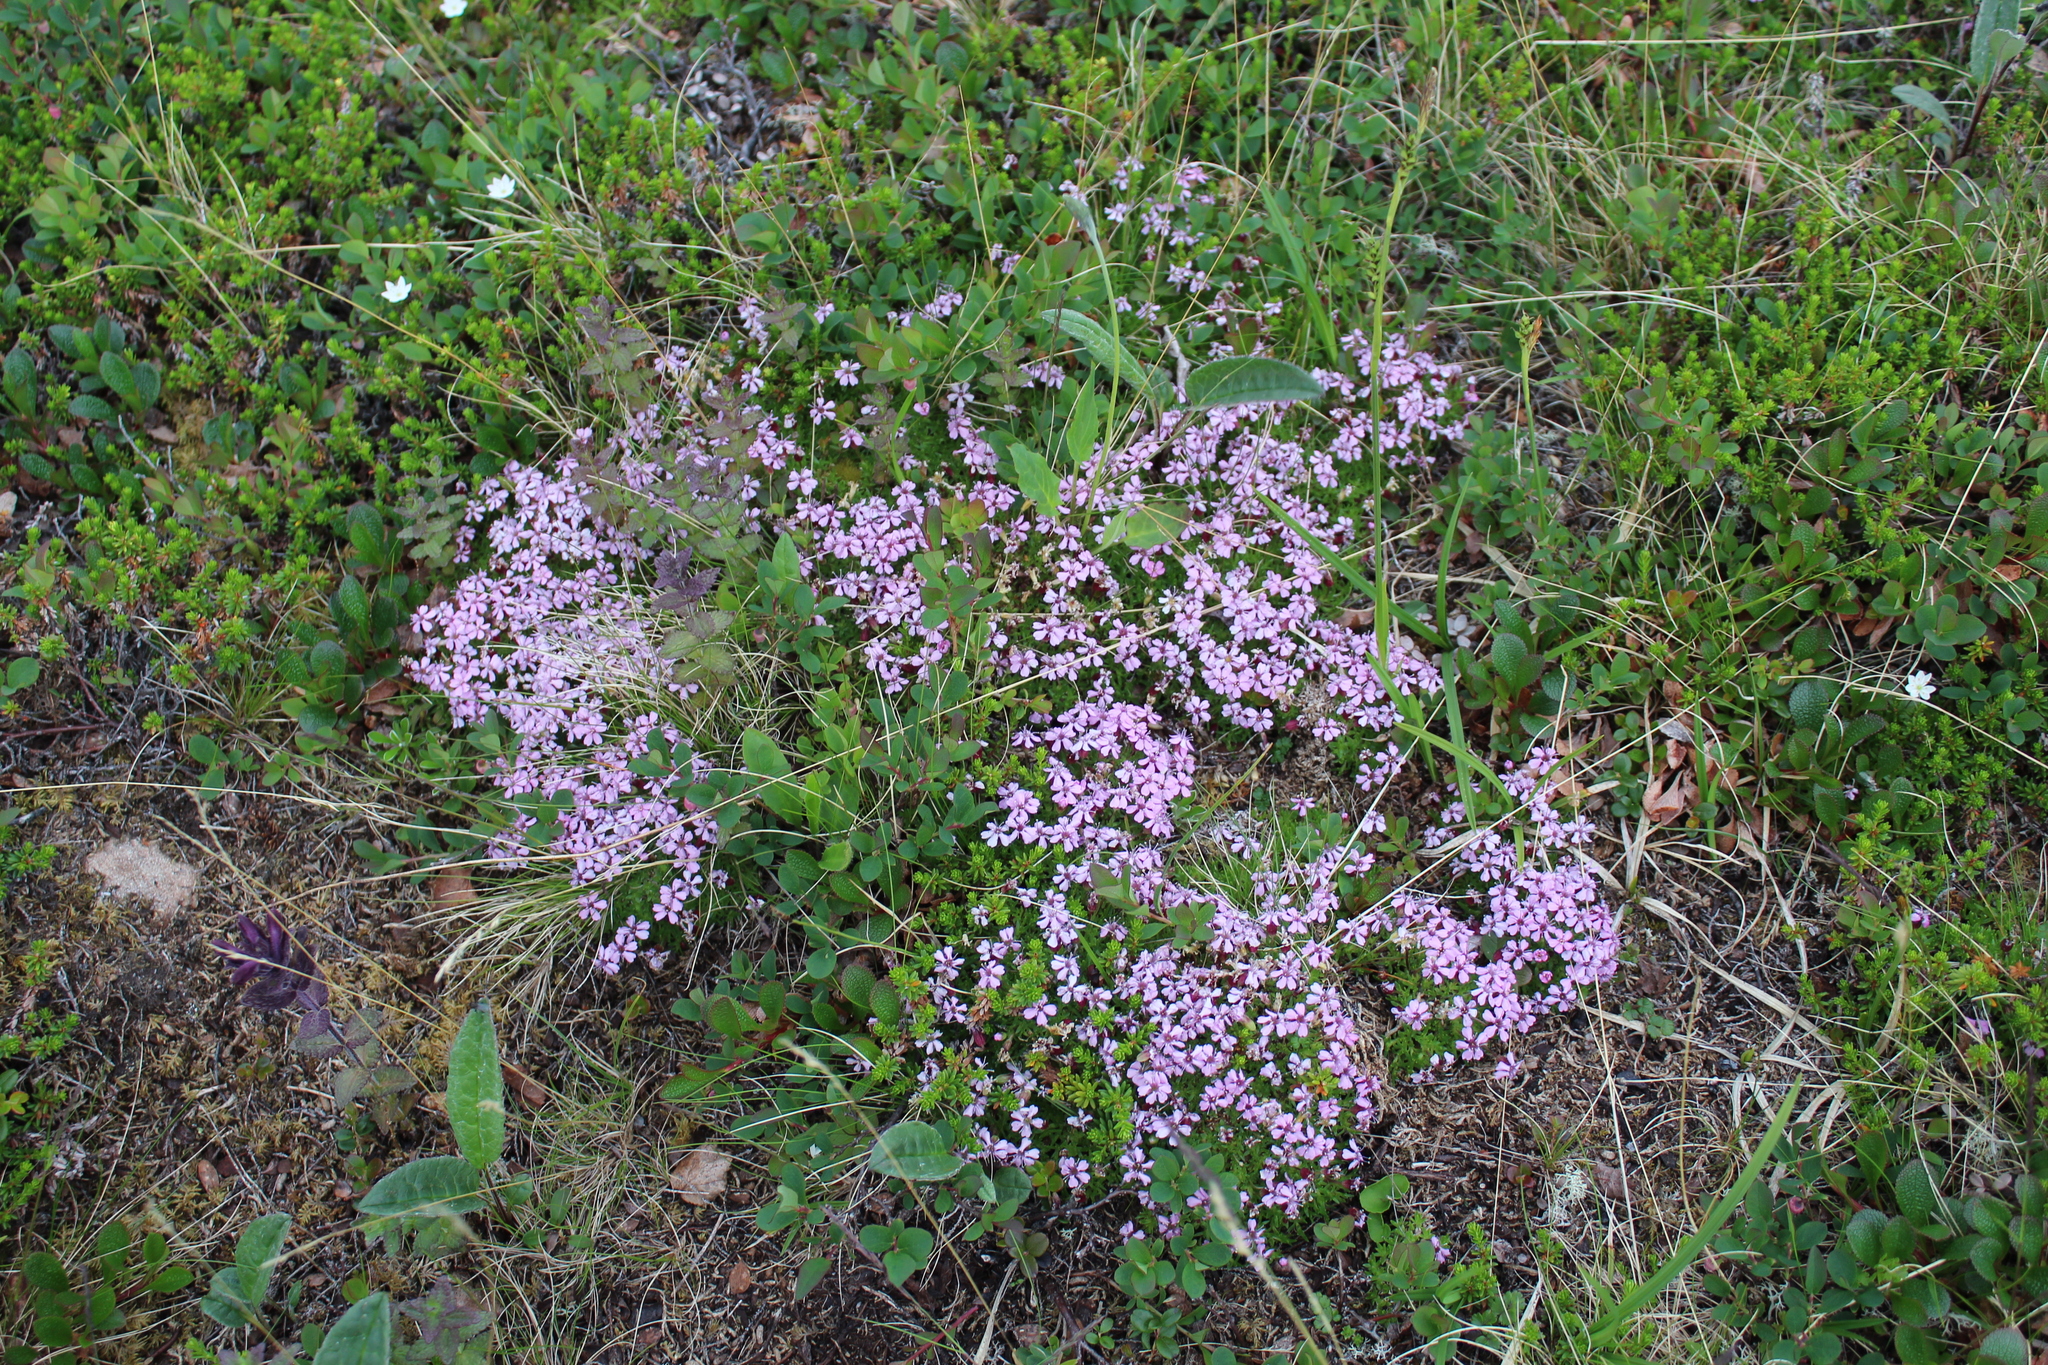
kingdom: Plantae
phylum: Tracheophyta
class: Magnoliopsida
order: Caryophyllales
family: Caryophyllaceae
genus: Silene
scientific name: Silene acaulis
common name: Moss campion
